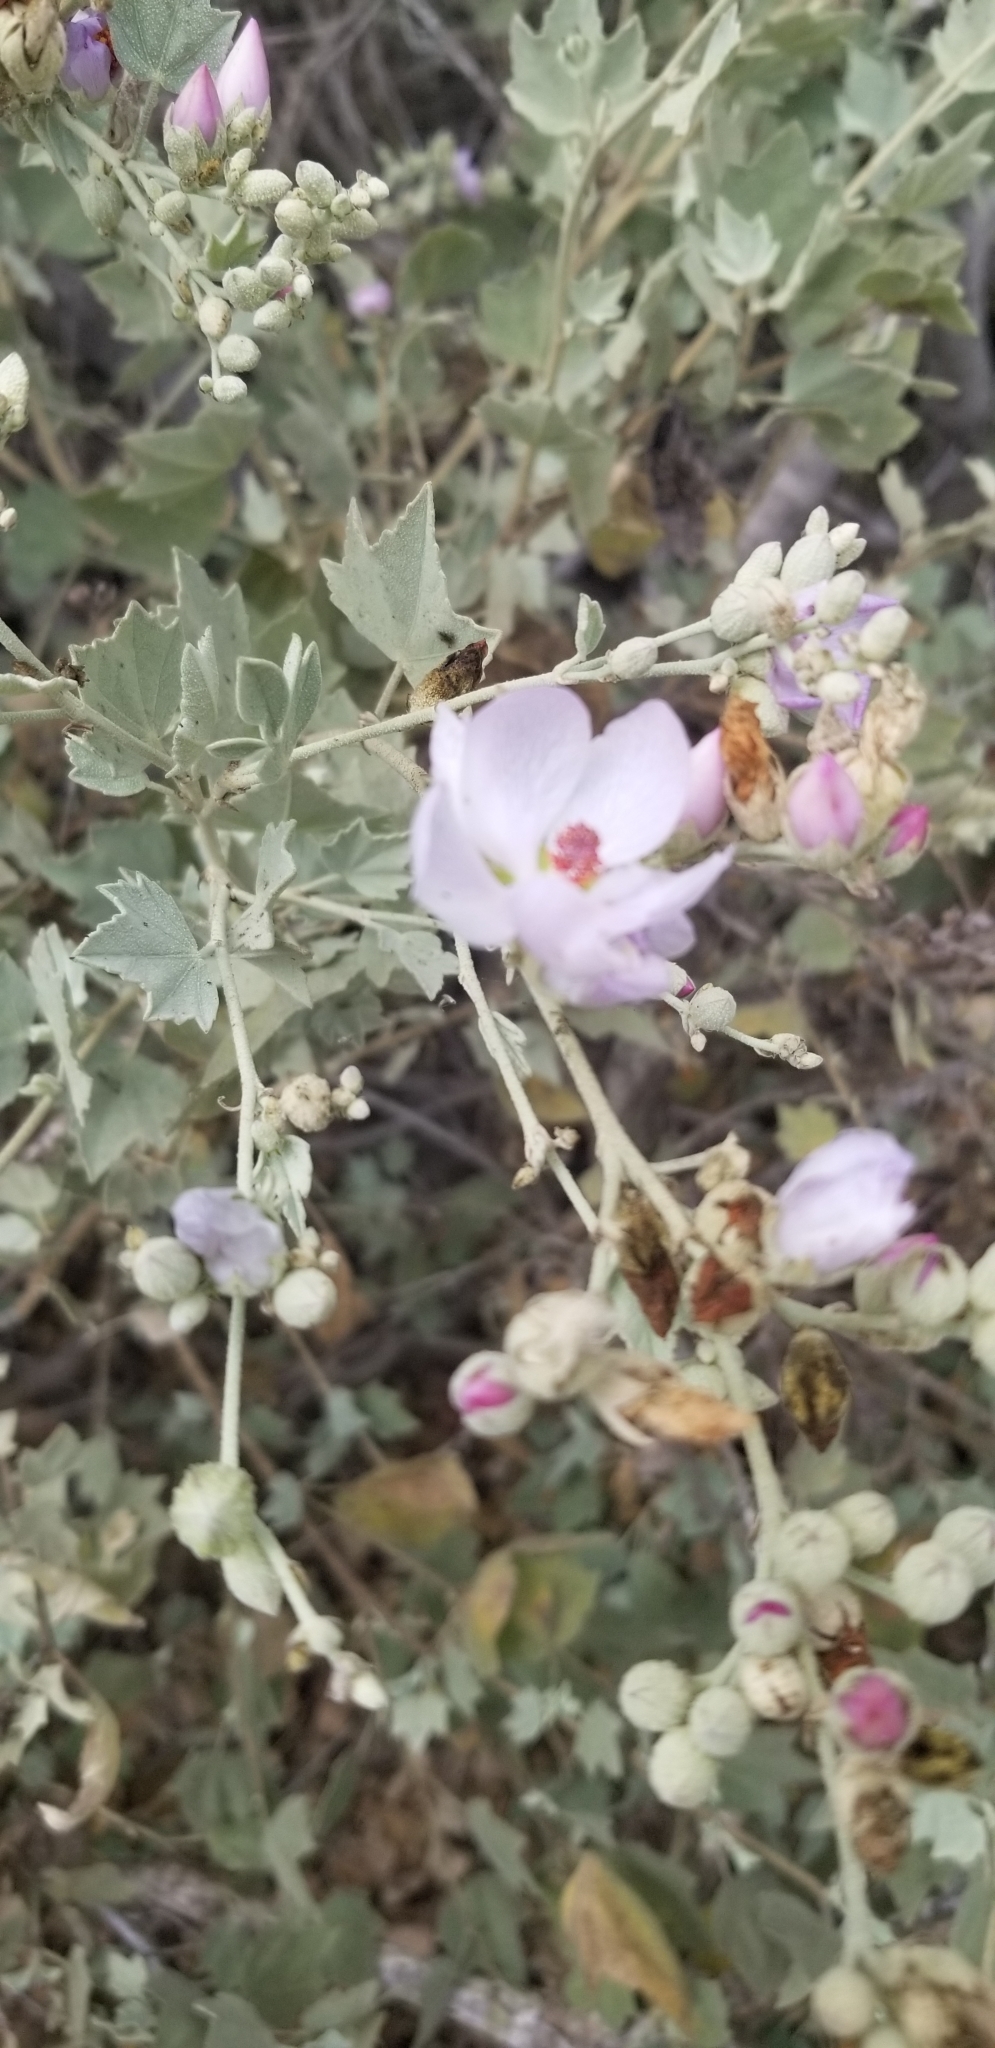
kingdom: Plantae
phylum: Tracheophyta
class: Magnoliopsida
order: Malvales
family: Malvaceae
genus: Malacothamnus
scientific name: Malacothamnus fasciculatus
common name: Sant cruz island bush-mallow
